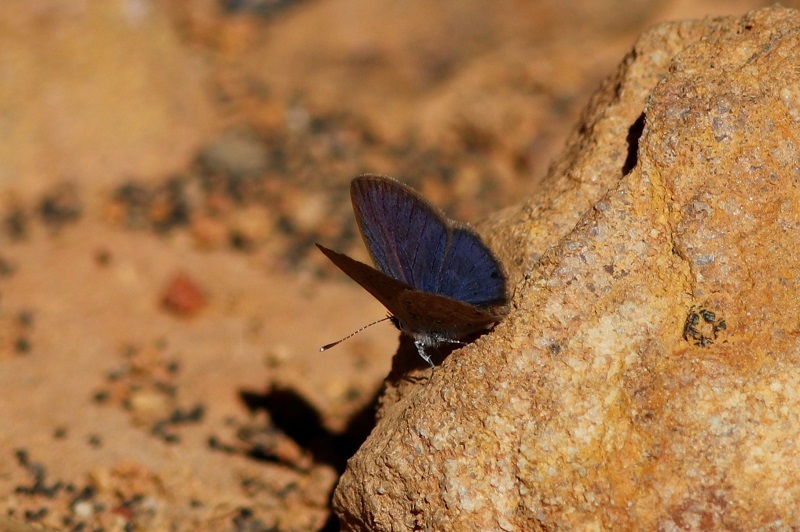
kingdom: Animalia
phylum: Arthropoda
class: Insecta
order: Lepidoptera
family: Lycaenidae
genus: Zizeeria
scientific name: Zizeeria knysna
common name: African grass blue
